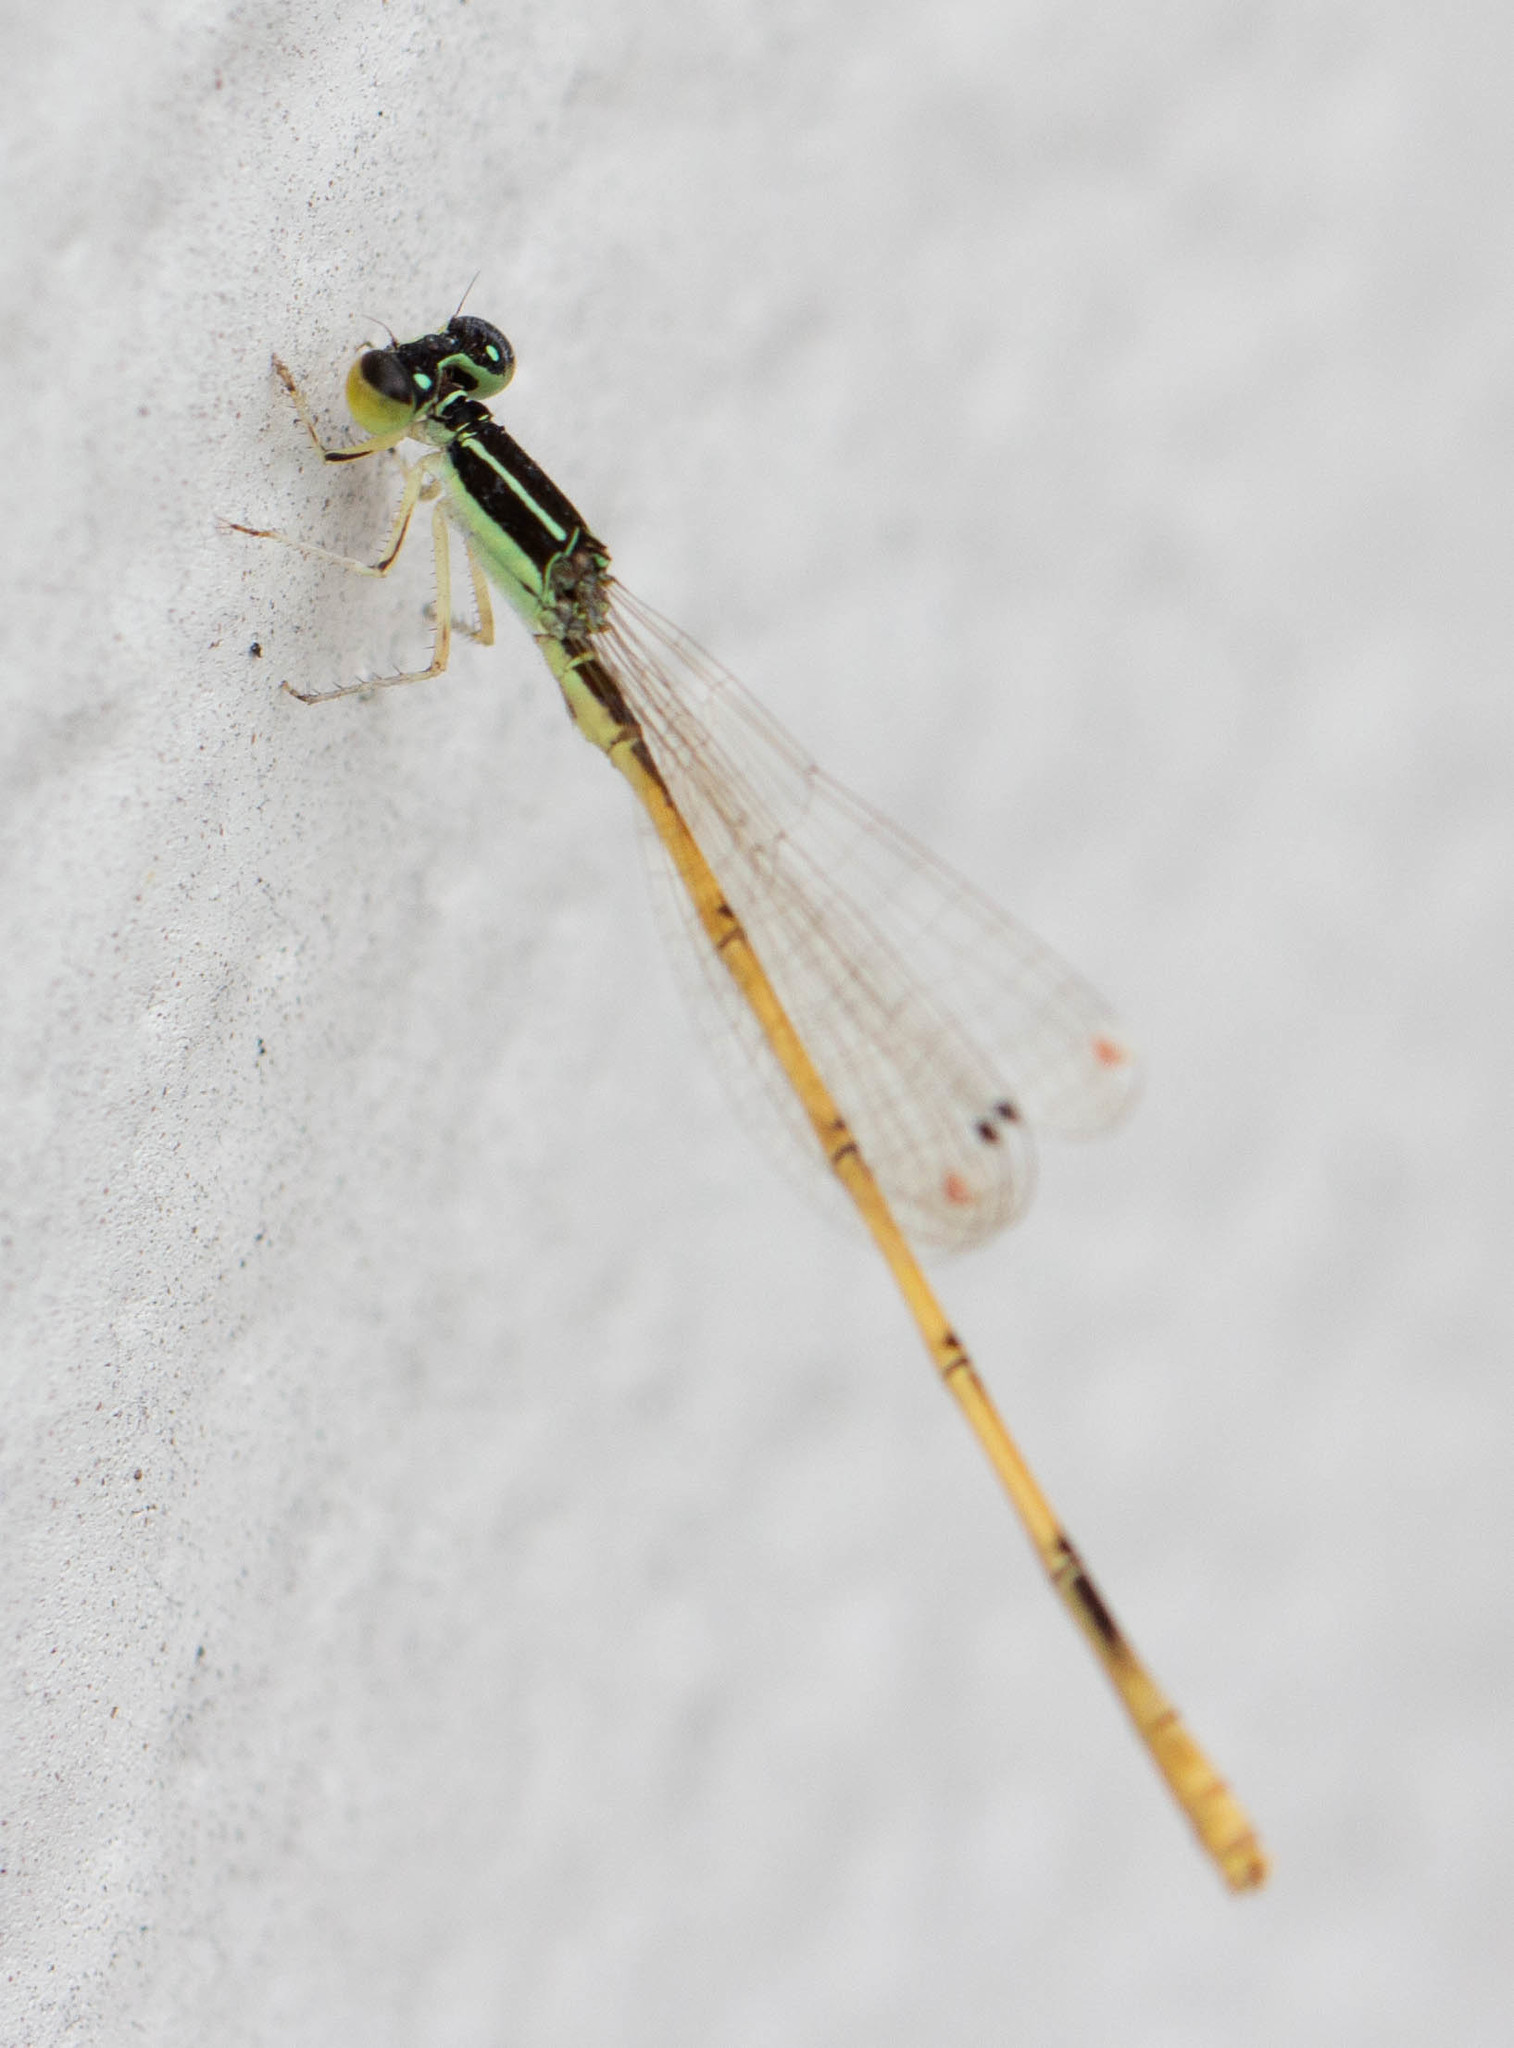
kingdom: Animalia
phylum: Arthropoda
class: Insecta
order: Odonata
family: Coenagrionidae
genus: Ischnura
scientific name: Ischnura hastata
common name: Citrine forktail
